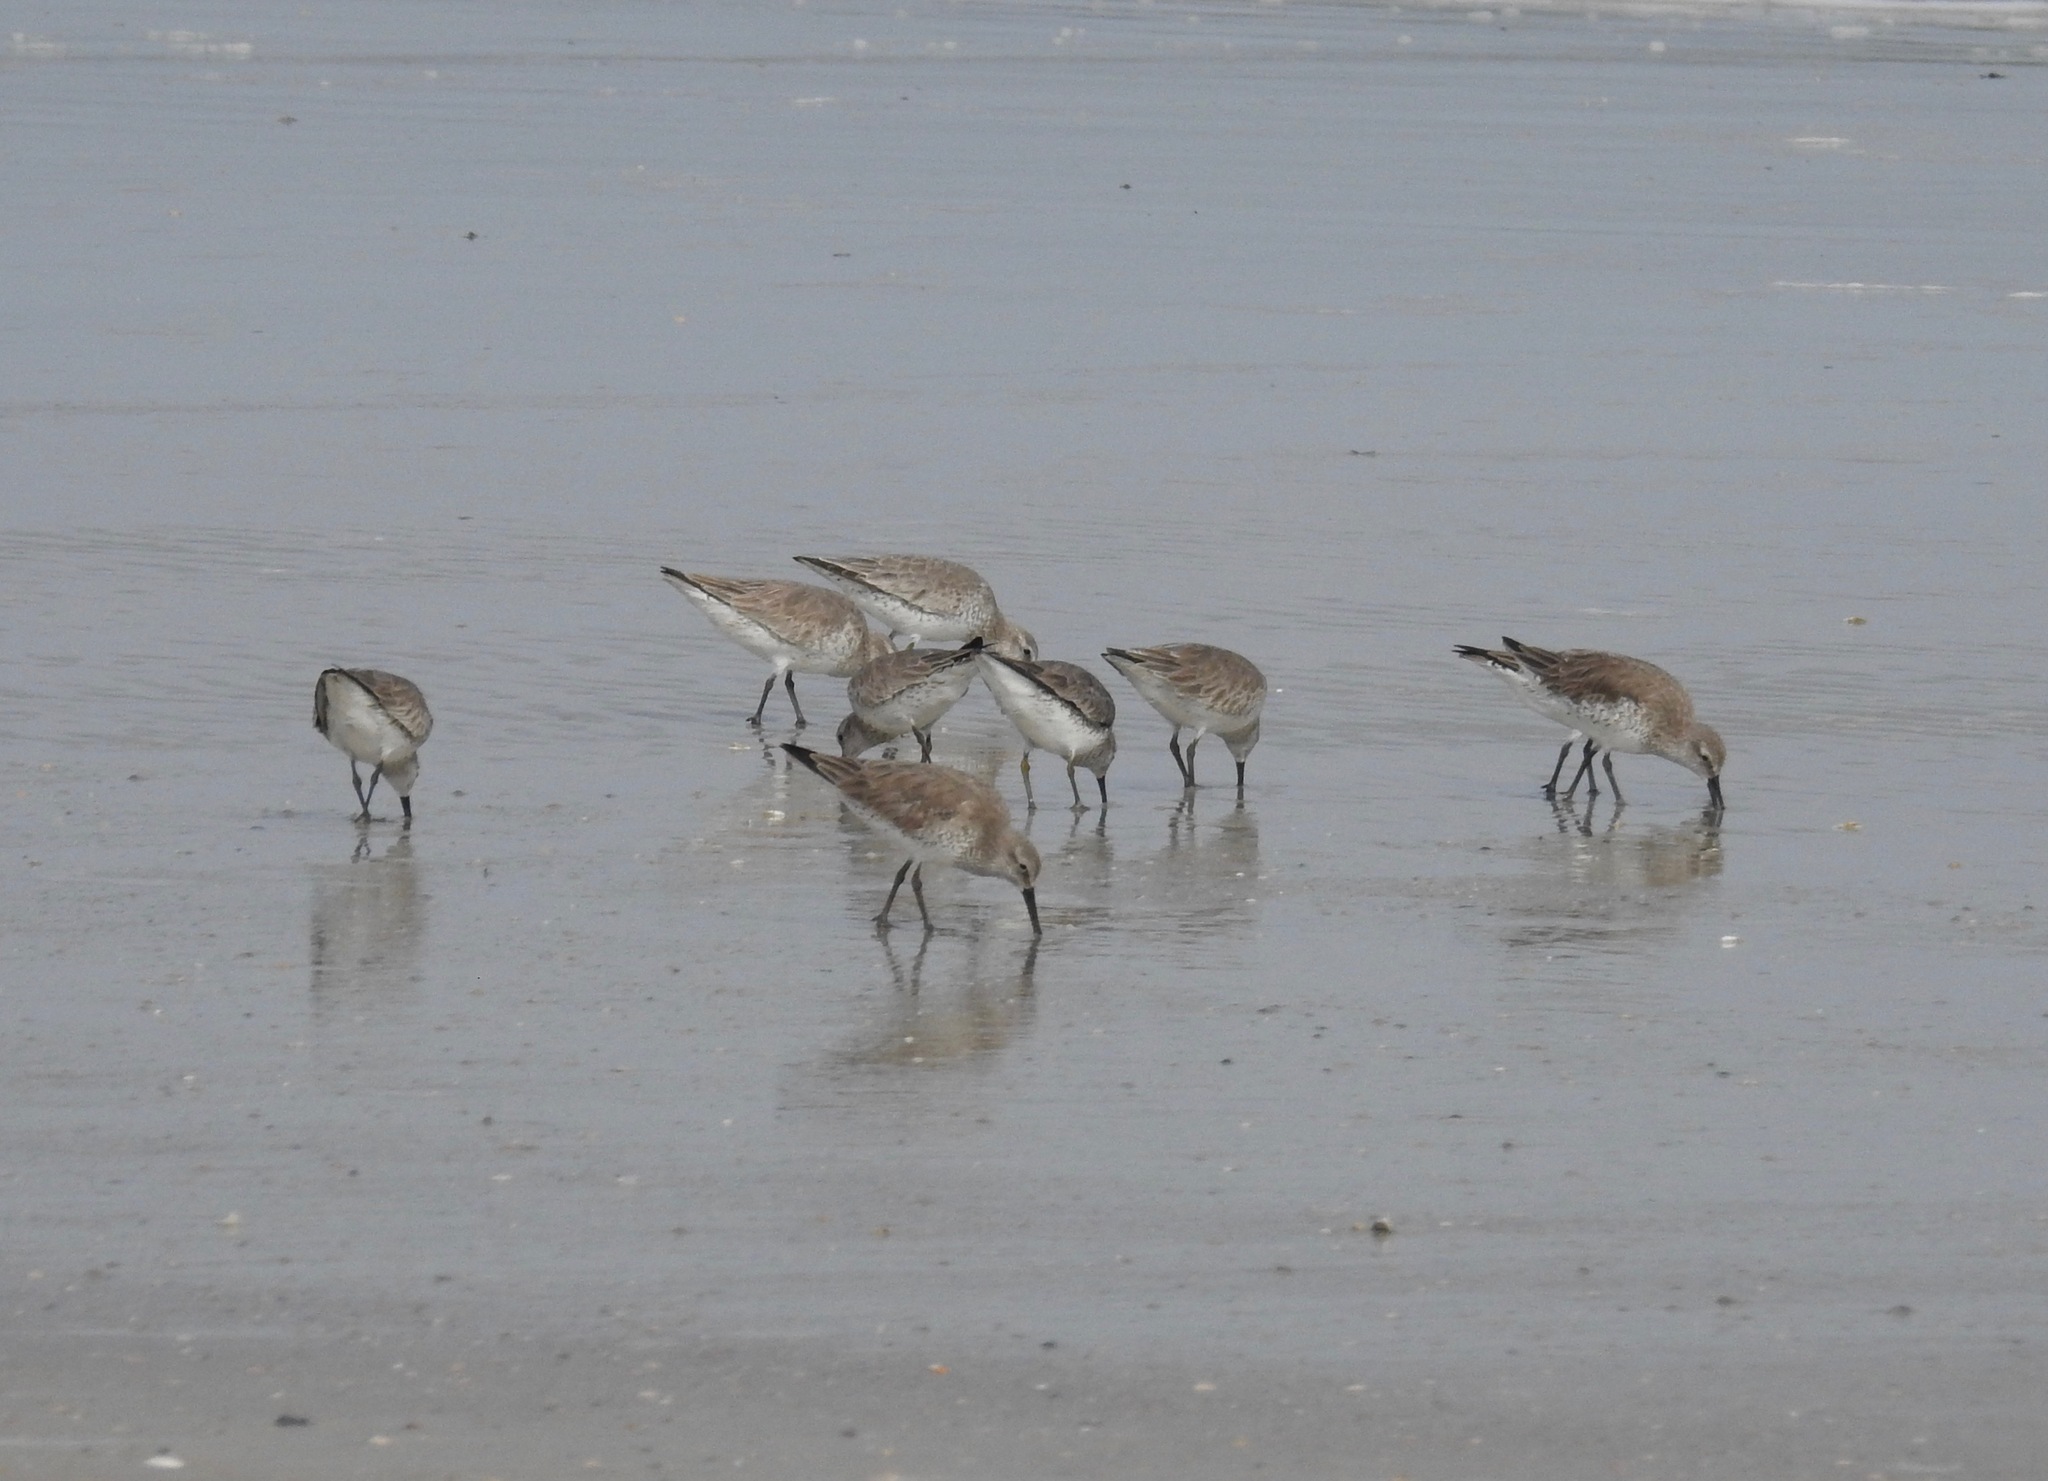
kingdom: Animalia
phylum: Chordata
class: Aves
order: Charadriiformes
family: Scolopacidae
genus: Calidris
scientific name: Calidris canutus
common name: Red knot
